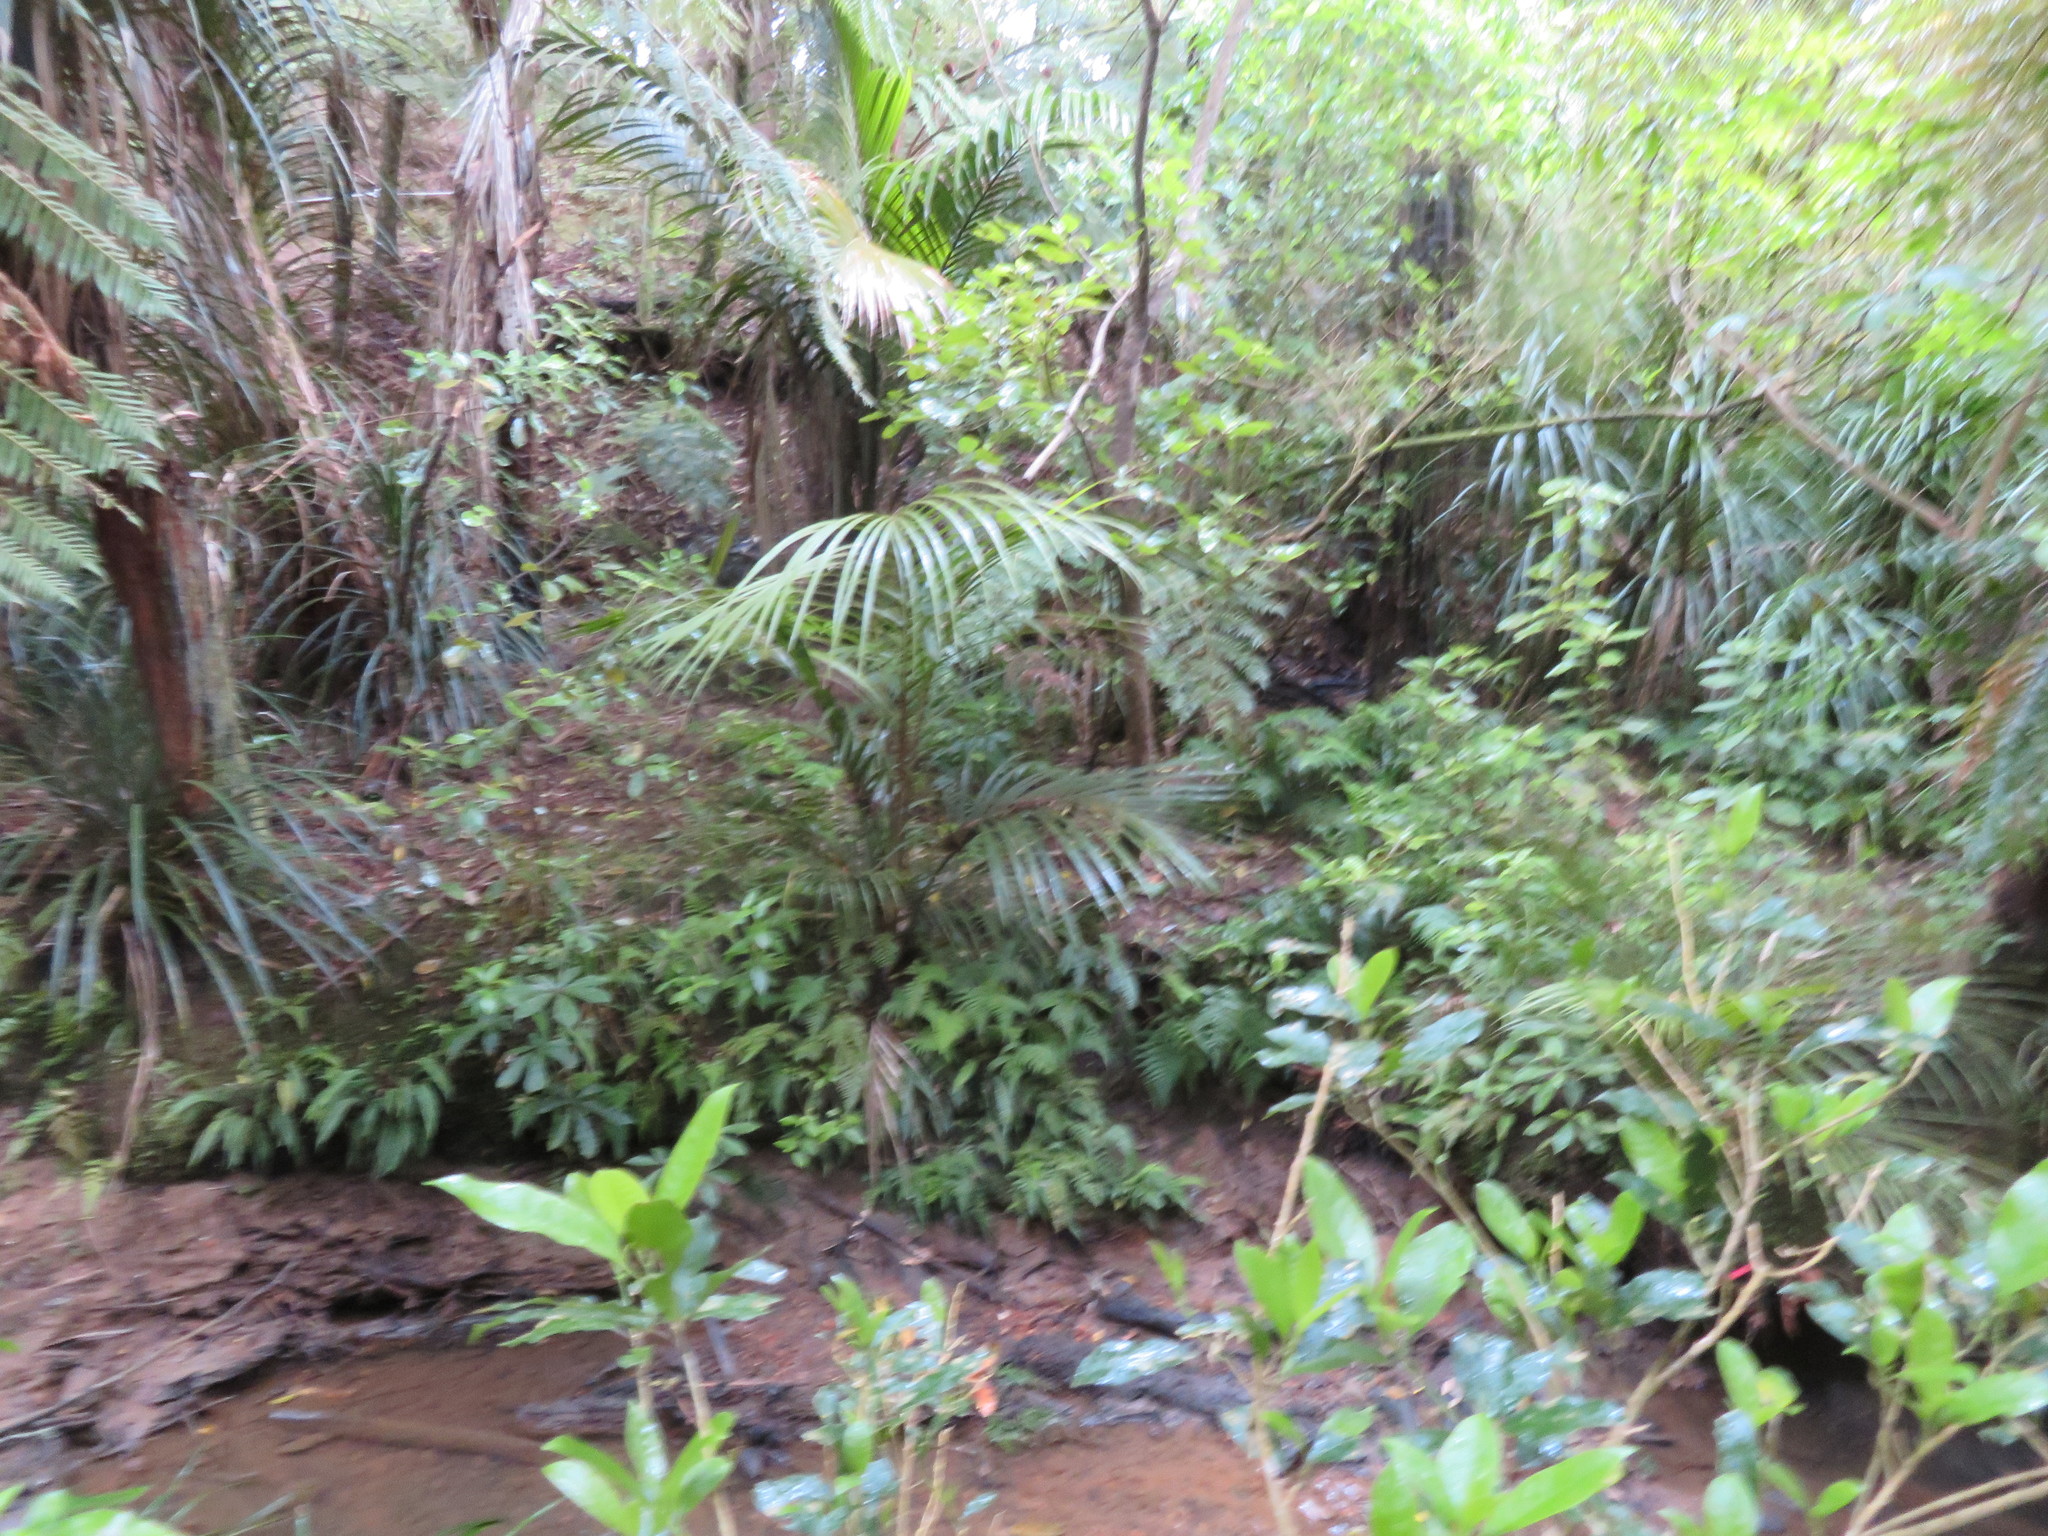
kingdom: Plantae
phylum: Tracheophyta
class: Liliopsida
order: Arecales
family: Arecaceae
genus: Rhopalostylis
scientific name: Rhopalostylis sapida
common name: Feather-duster palm
